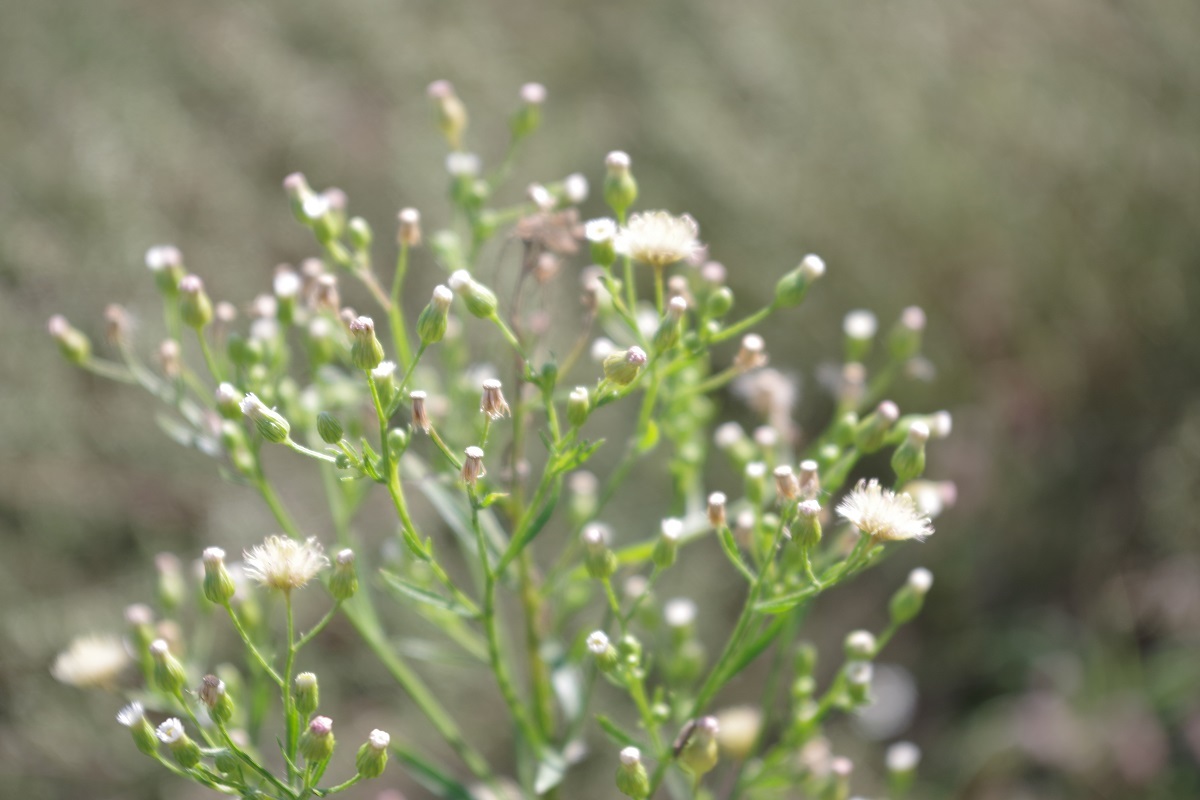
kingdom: Plantae
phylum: Tracheophyta
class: Magnoliopsida
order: Asterales
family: Asteraceae
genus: Erigeron
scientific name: Erigeron canadensis
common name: Canadian fleabane
